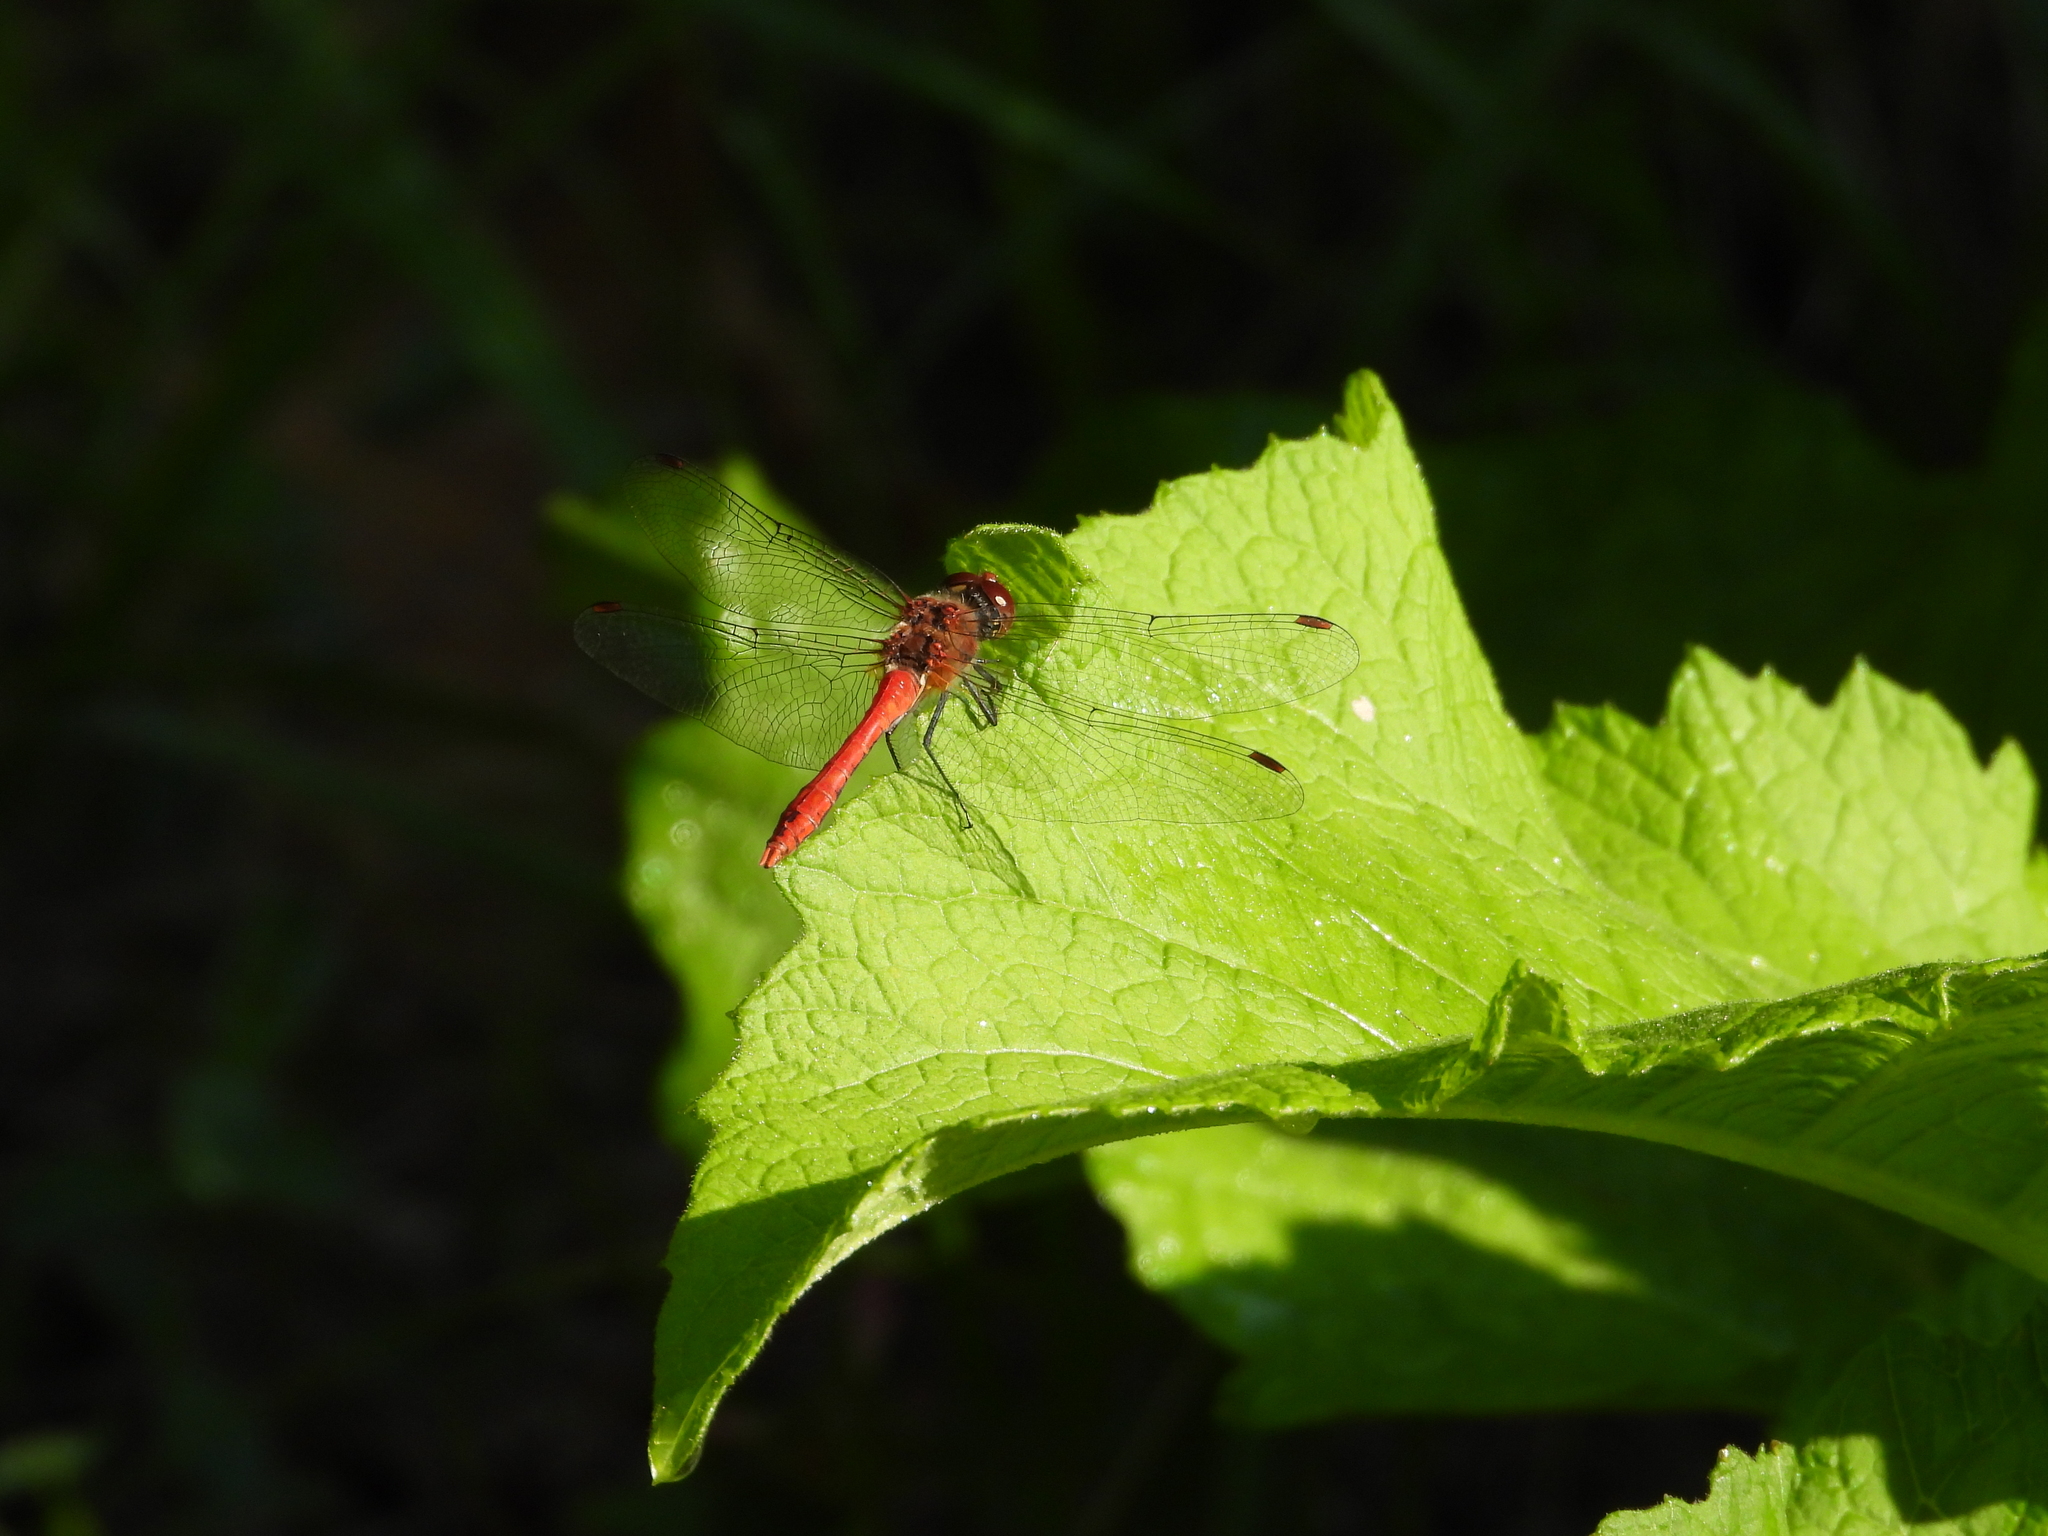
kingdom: Animalia
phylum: Arthropoda
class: Insecta
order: Odonata
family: Libellulidae
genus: Sympetrum
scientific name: Sympetrum sanguineum
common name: Ruddy darter
